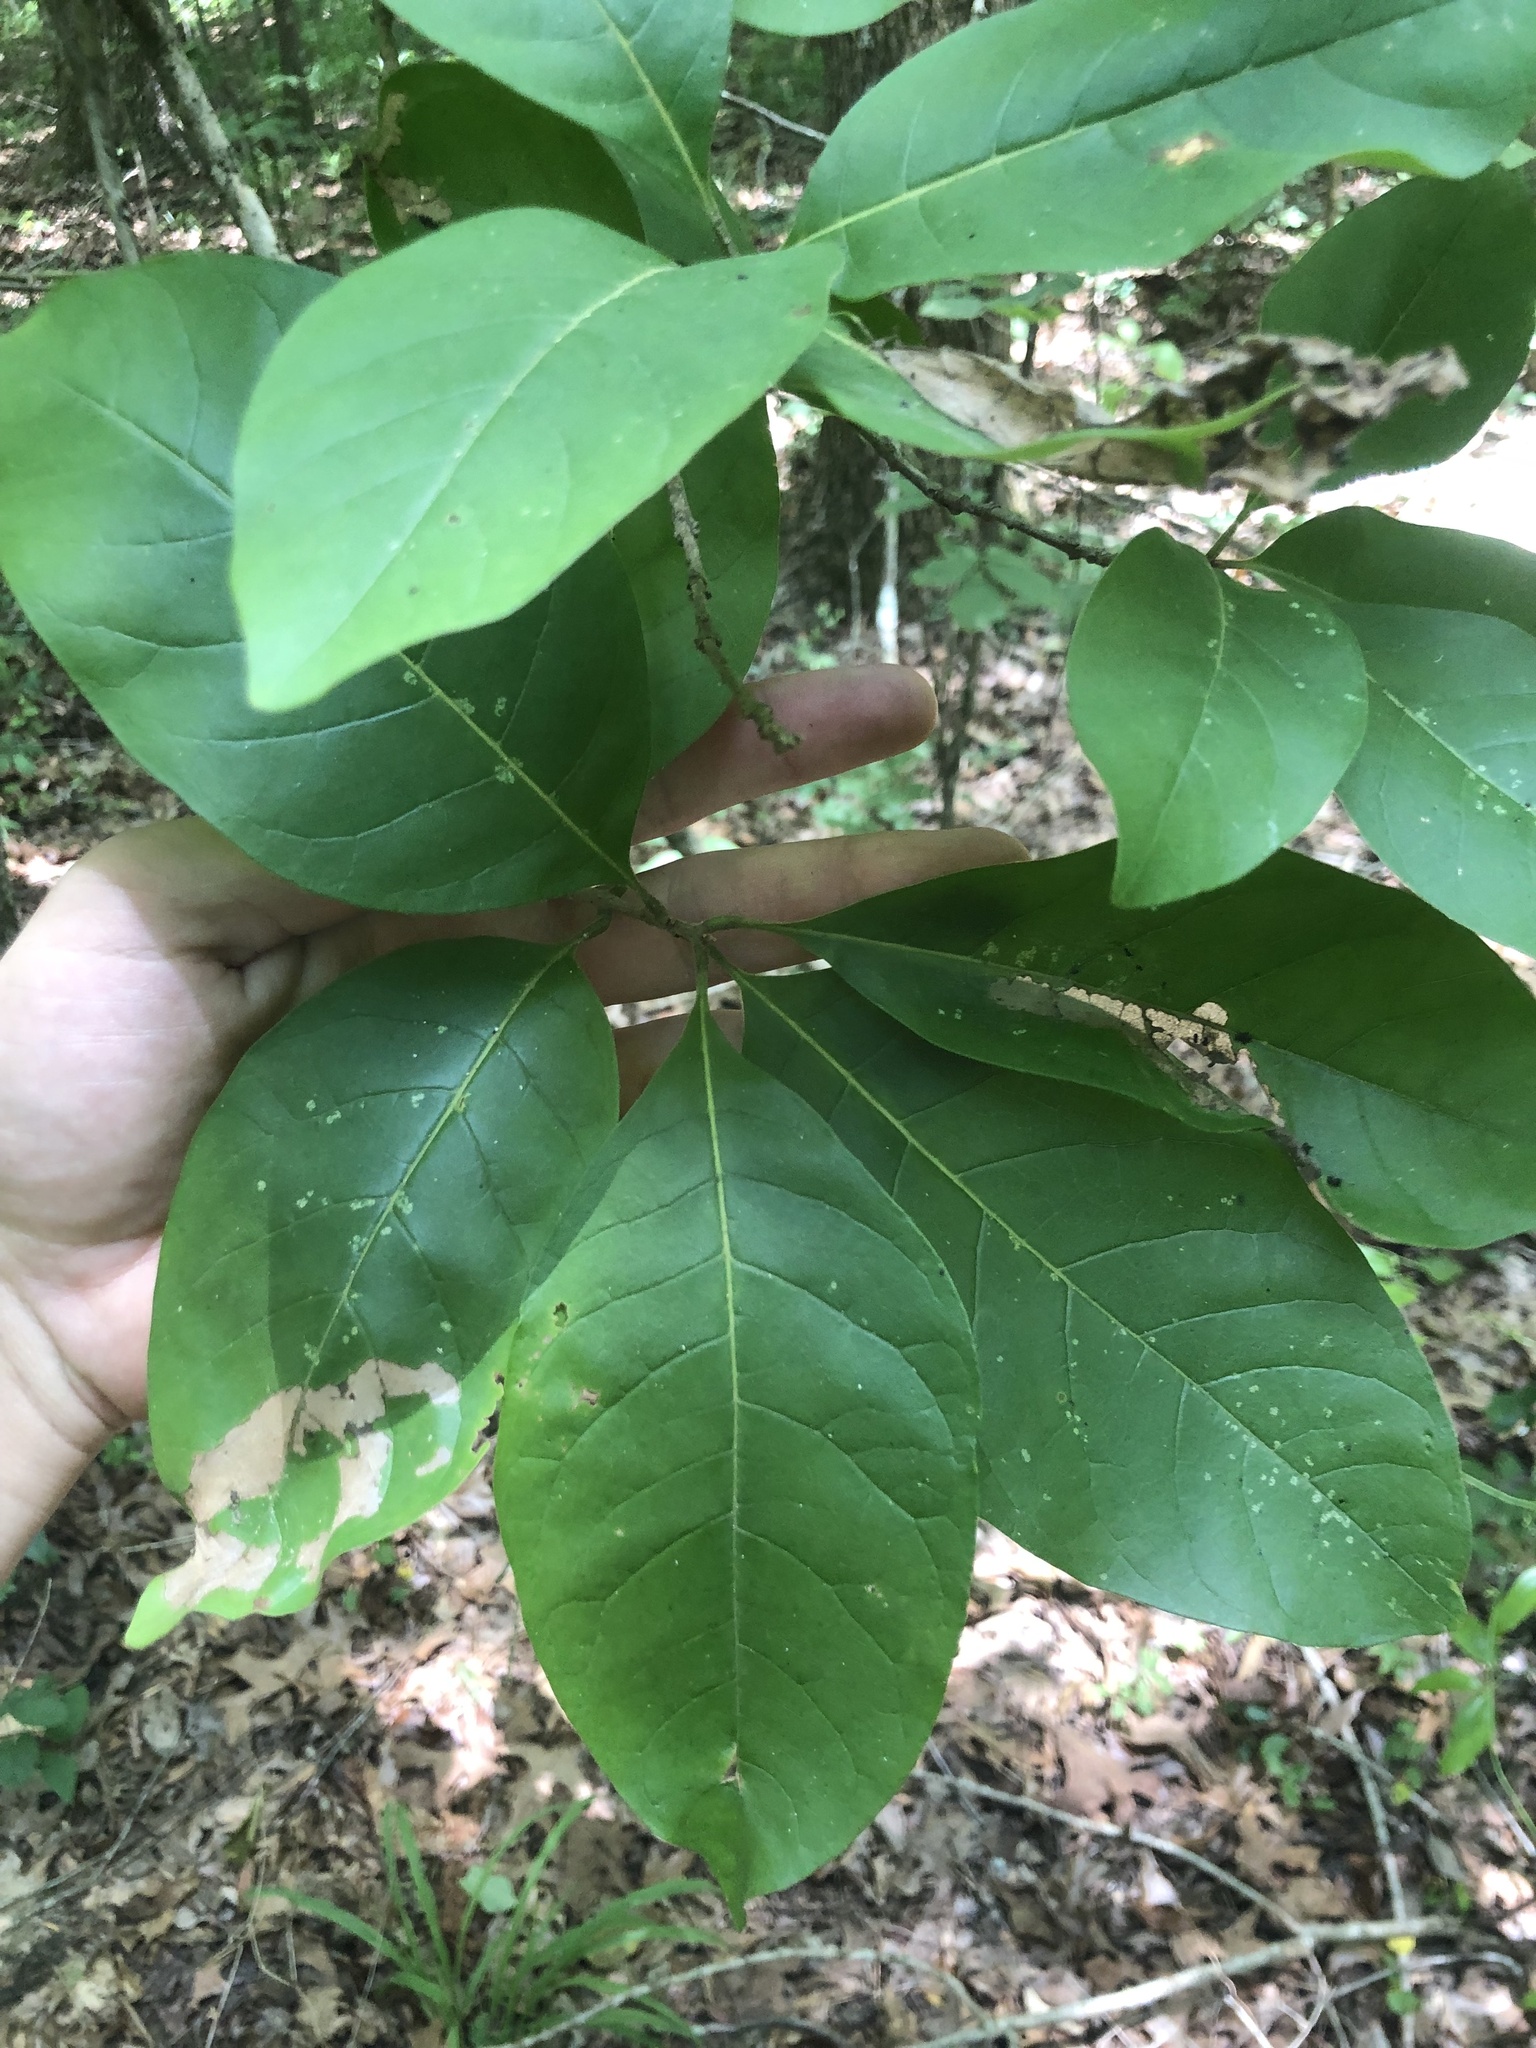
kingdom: Plantae
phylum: Tracheophyta
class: Magnoliopsida
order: Lamiales
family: Oleaceae
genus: Chionanthus
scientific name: Chionanthus virginicus
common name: American fringetree
